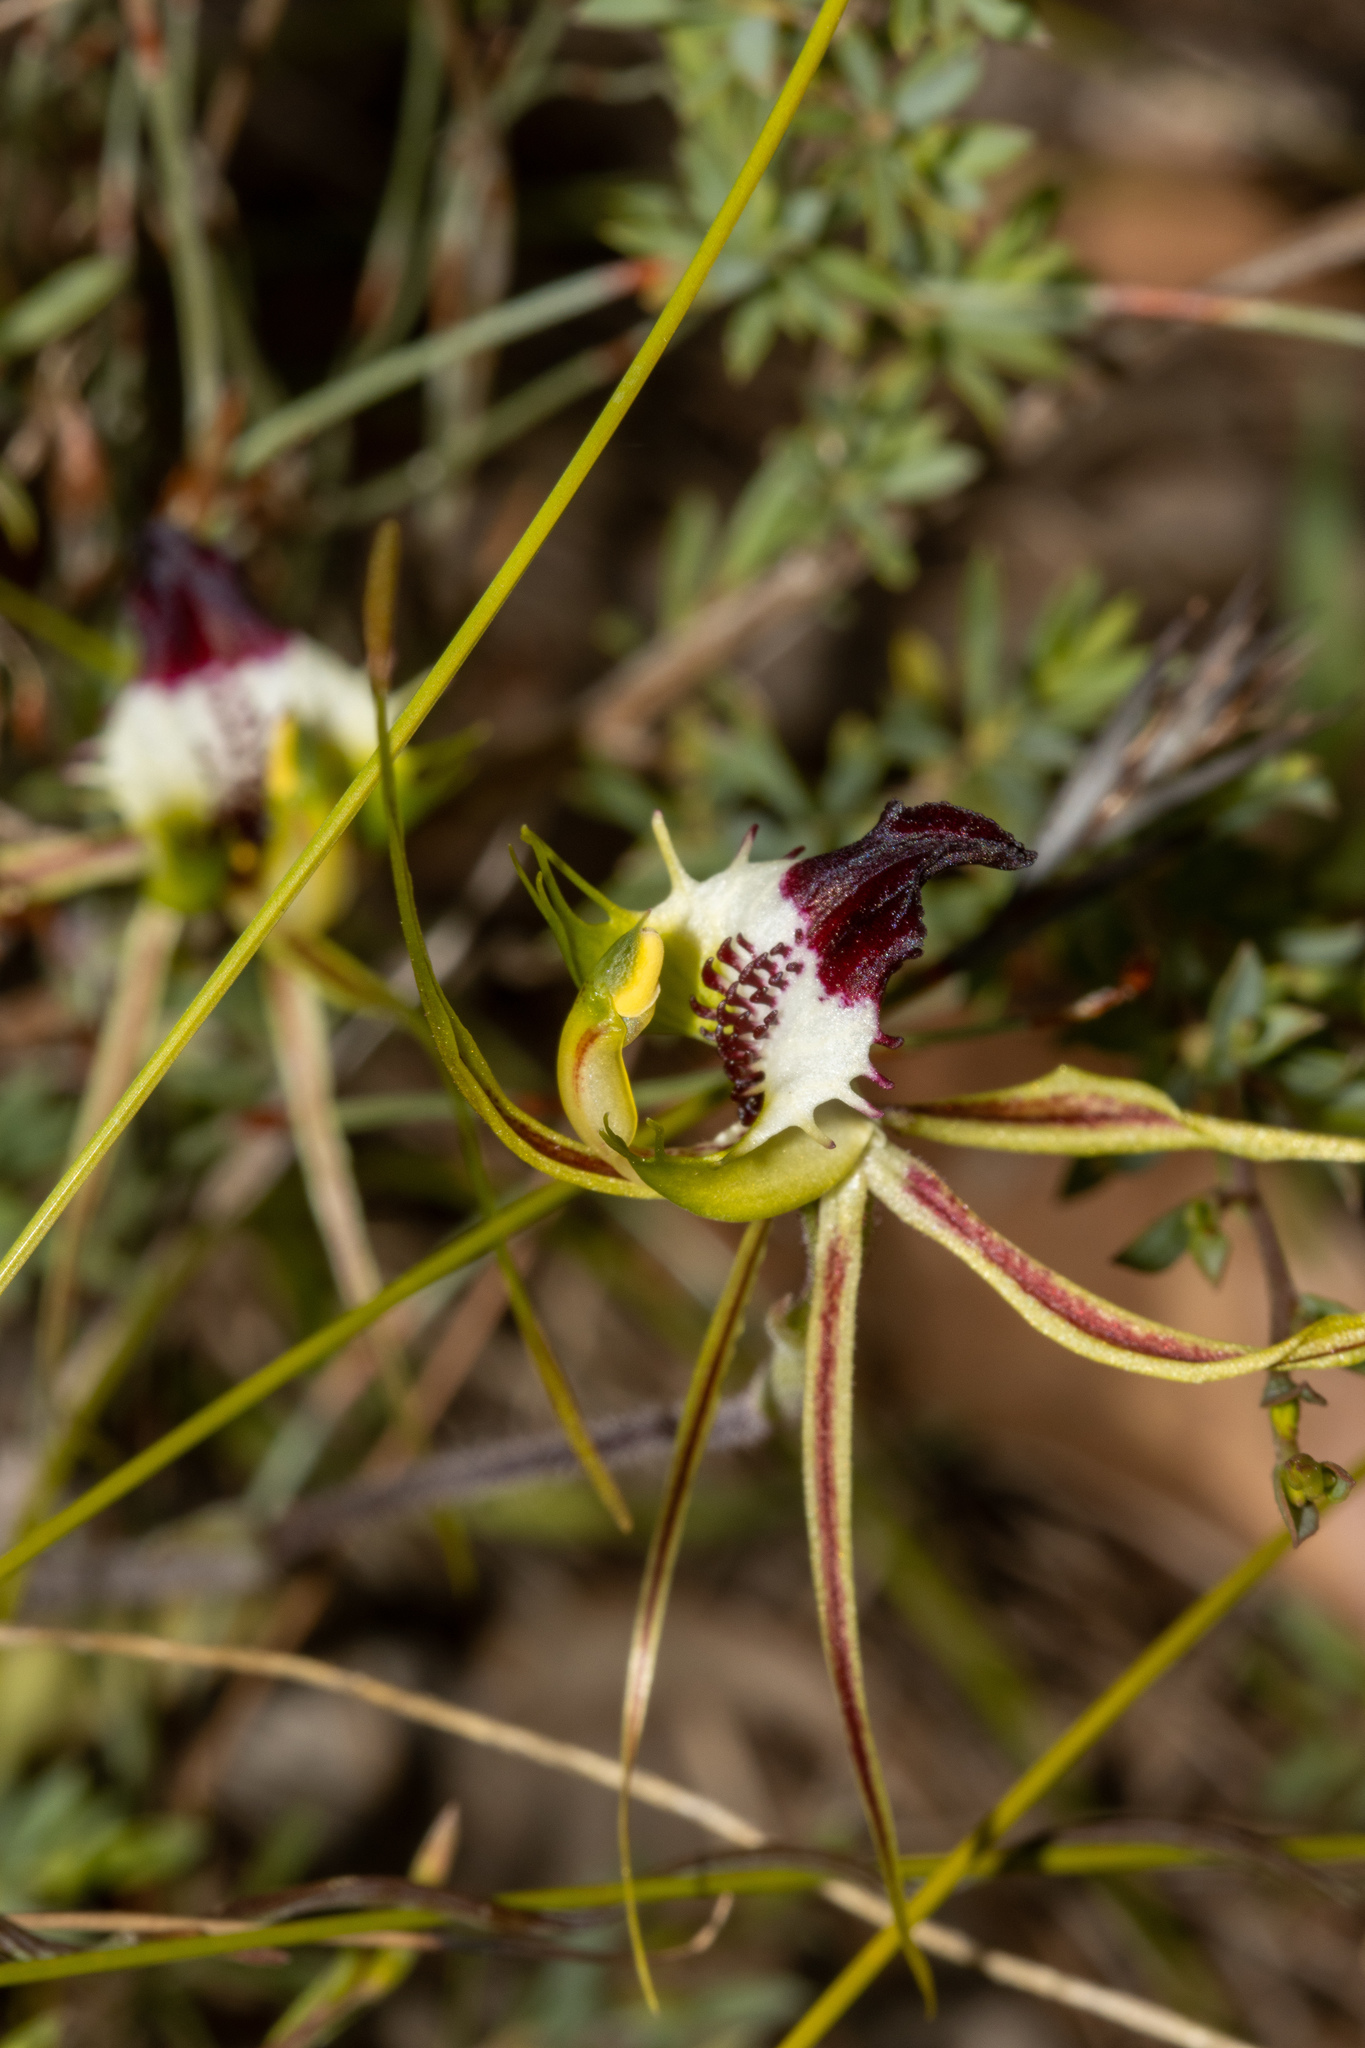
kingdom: Plantae
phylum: Tracheophyta
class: Liliopsida
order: Asparagales
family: Orchidaceae
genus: Caladenia
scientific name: Caladenia tentaculata
